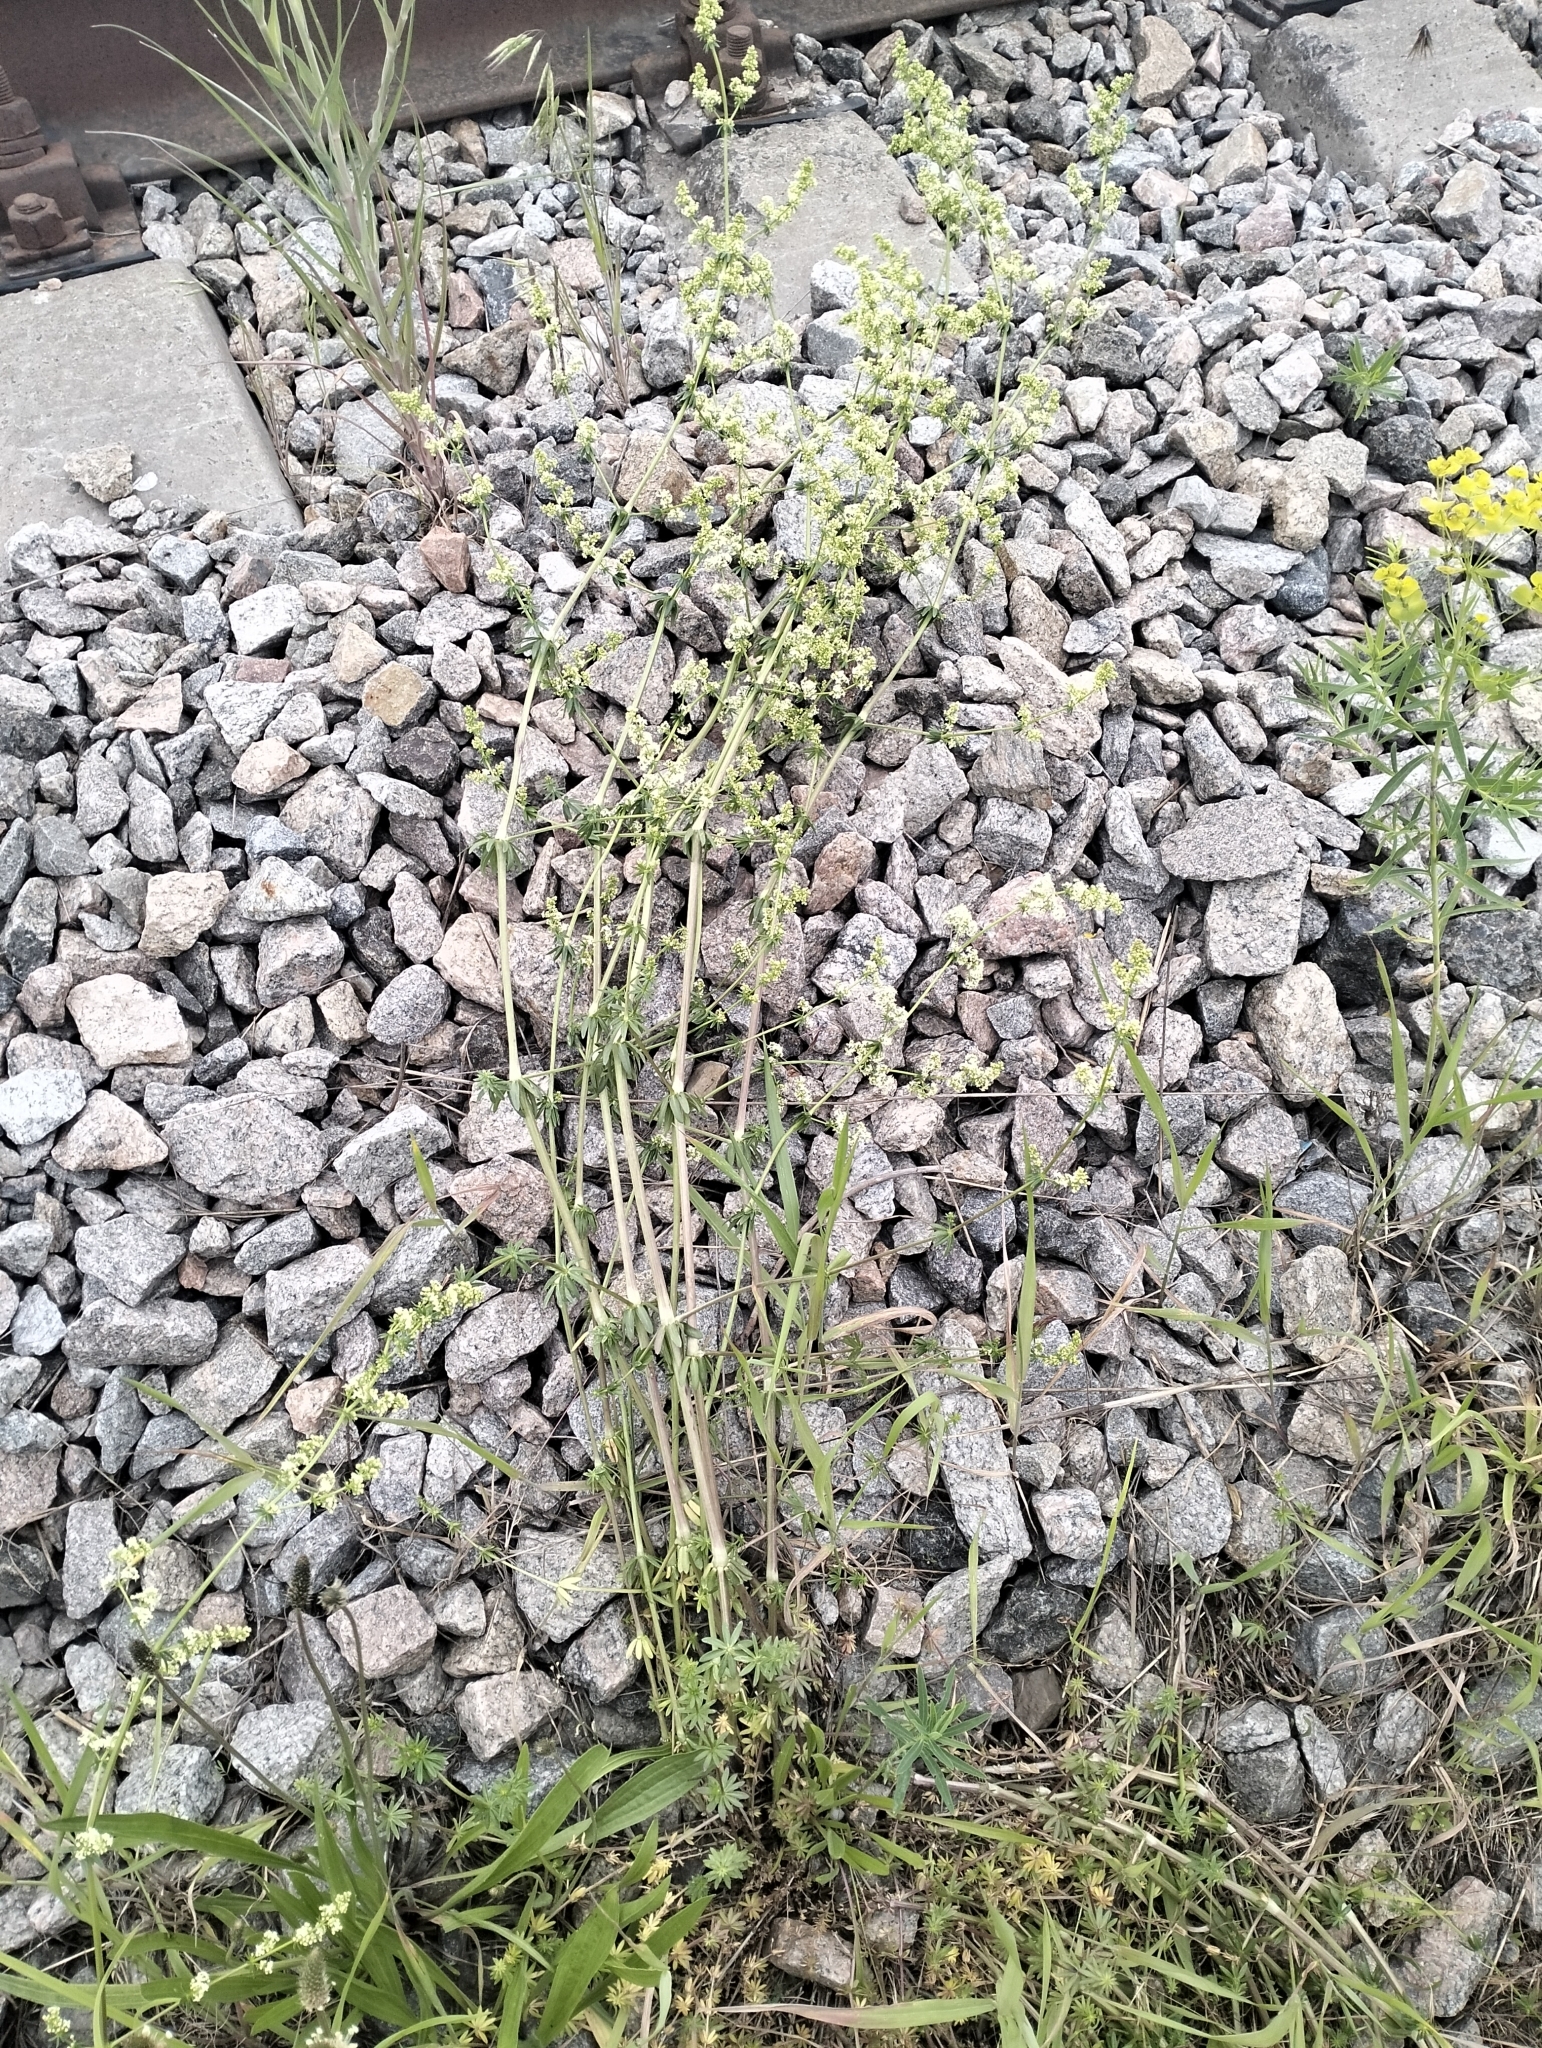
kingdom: Plantae
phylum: Tracheophyta
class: Magnoliopsida
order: Gentianales
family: Rubiaceae
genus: Galium
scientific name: Galium mollugo
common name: Hedge bedstraw
